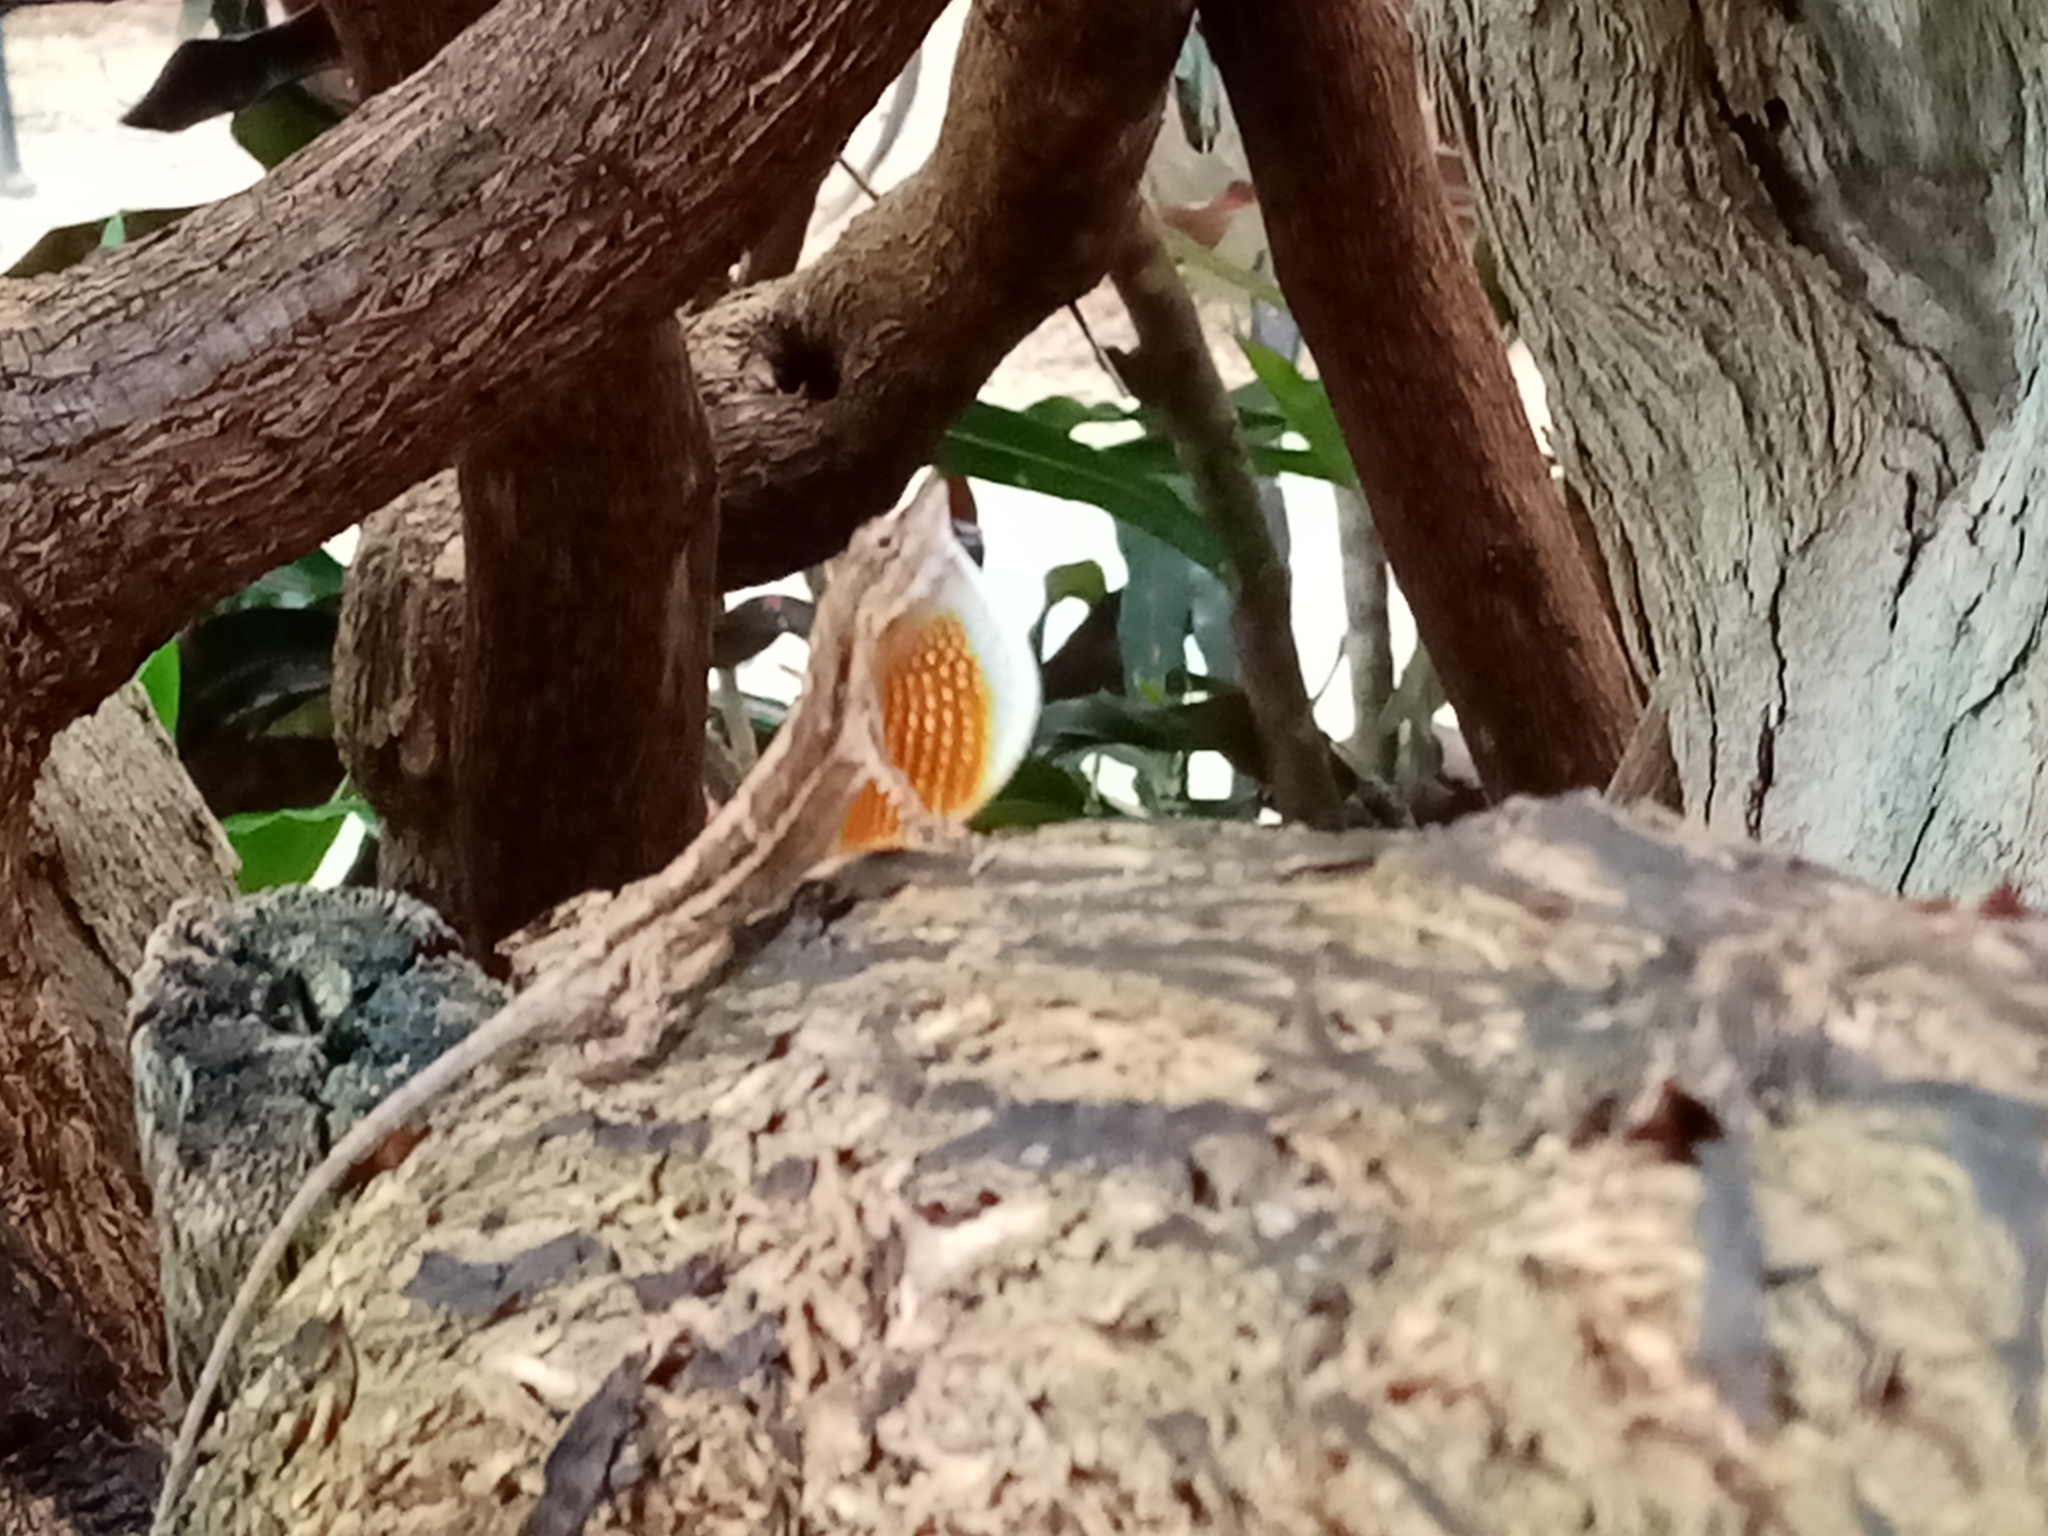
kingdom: Animalia
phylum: Chordata
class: Squamata
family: Dactyloidae
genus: Anolis
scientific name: Anolis nebulosus
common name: Clouded anole
